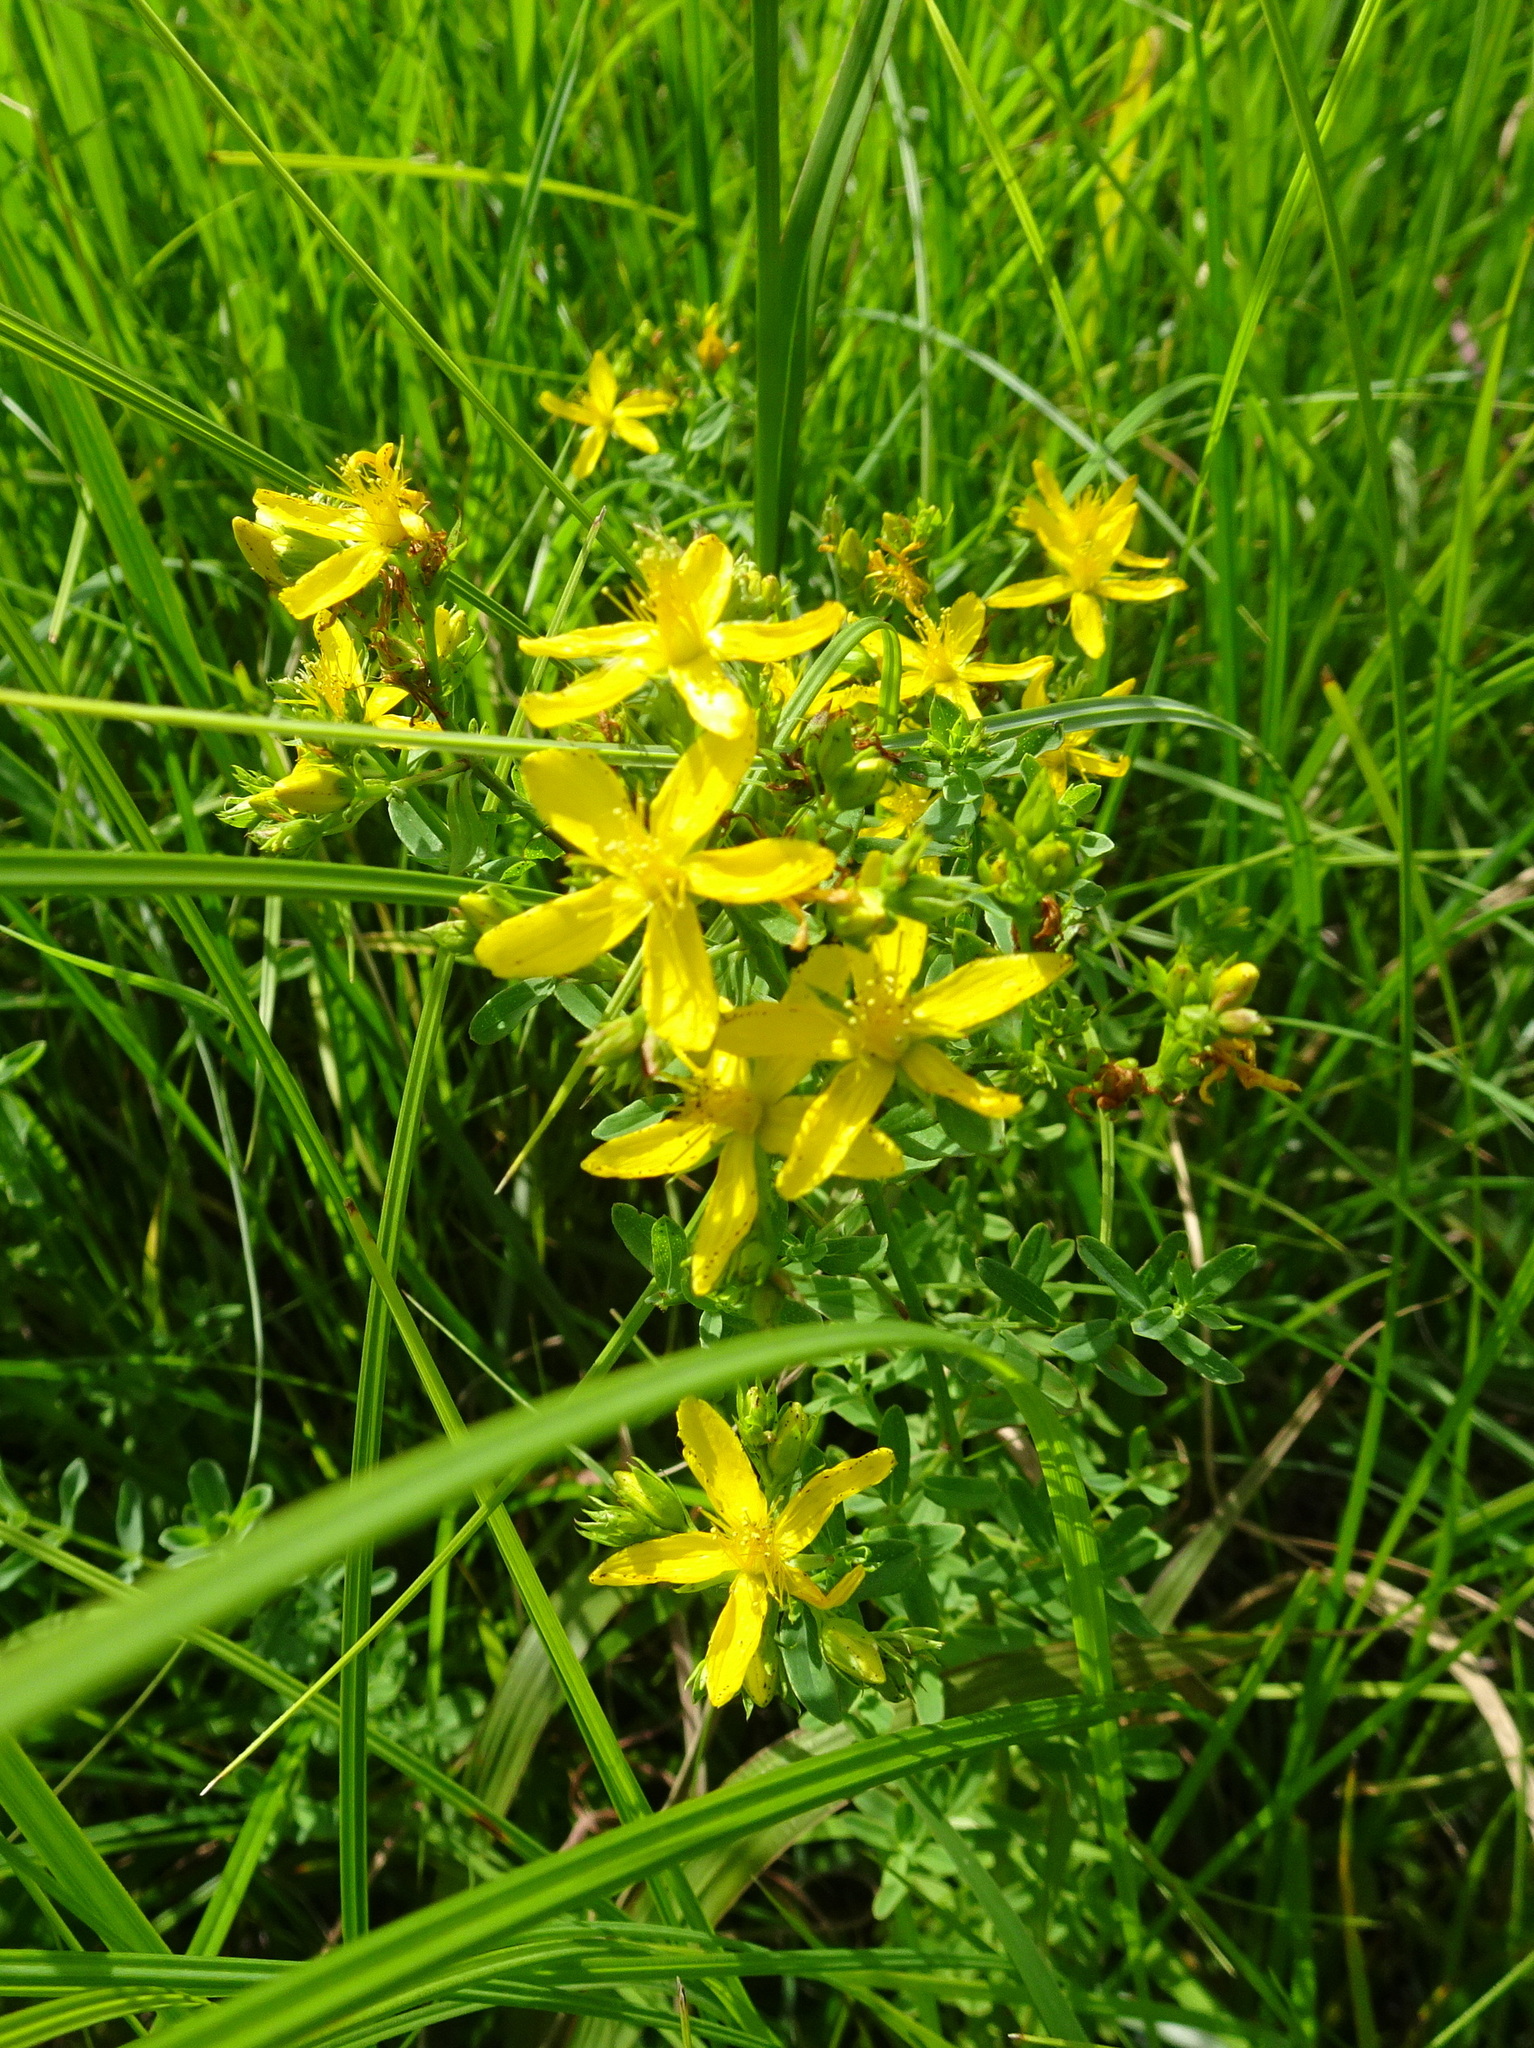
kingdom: Plantae
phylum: Tracheophyta
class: Magnoliopsida
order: Malpighiales
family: Hypericaceae
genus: Hypericum
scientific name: Hypericum perforatum
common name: Common st. johnswort
